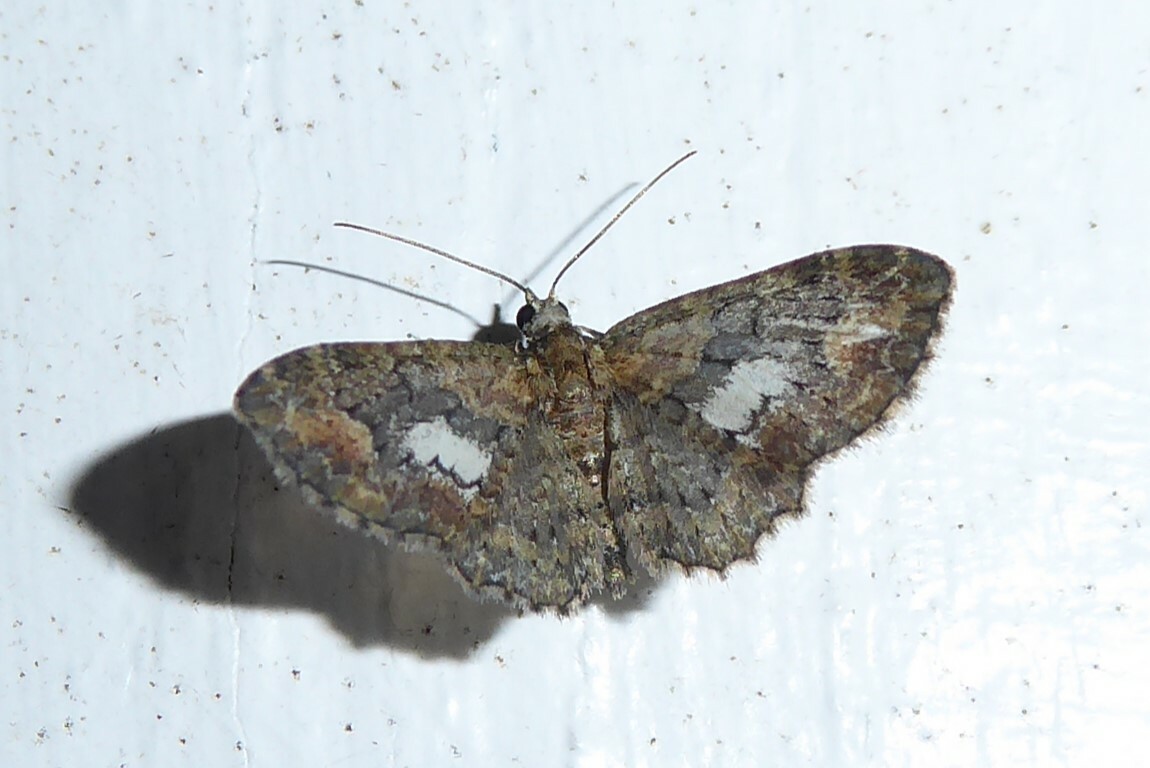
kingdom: Animalia
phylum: Arthropoda
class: Insecta
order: Lepidoptera
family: Geometridae
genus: Pasiphilodes
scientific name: Pasiphilodes testulata
